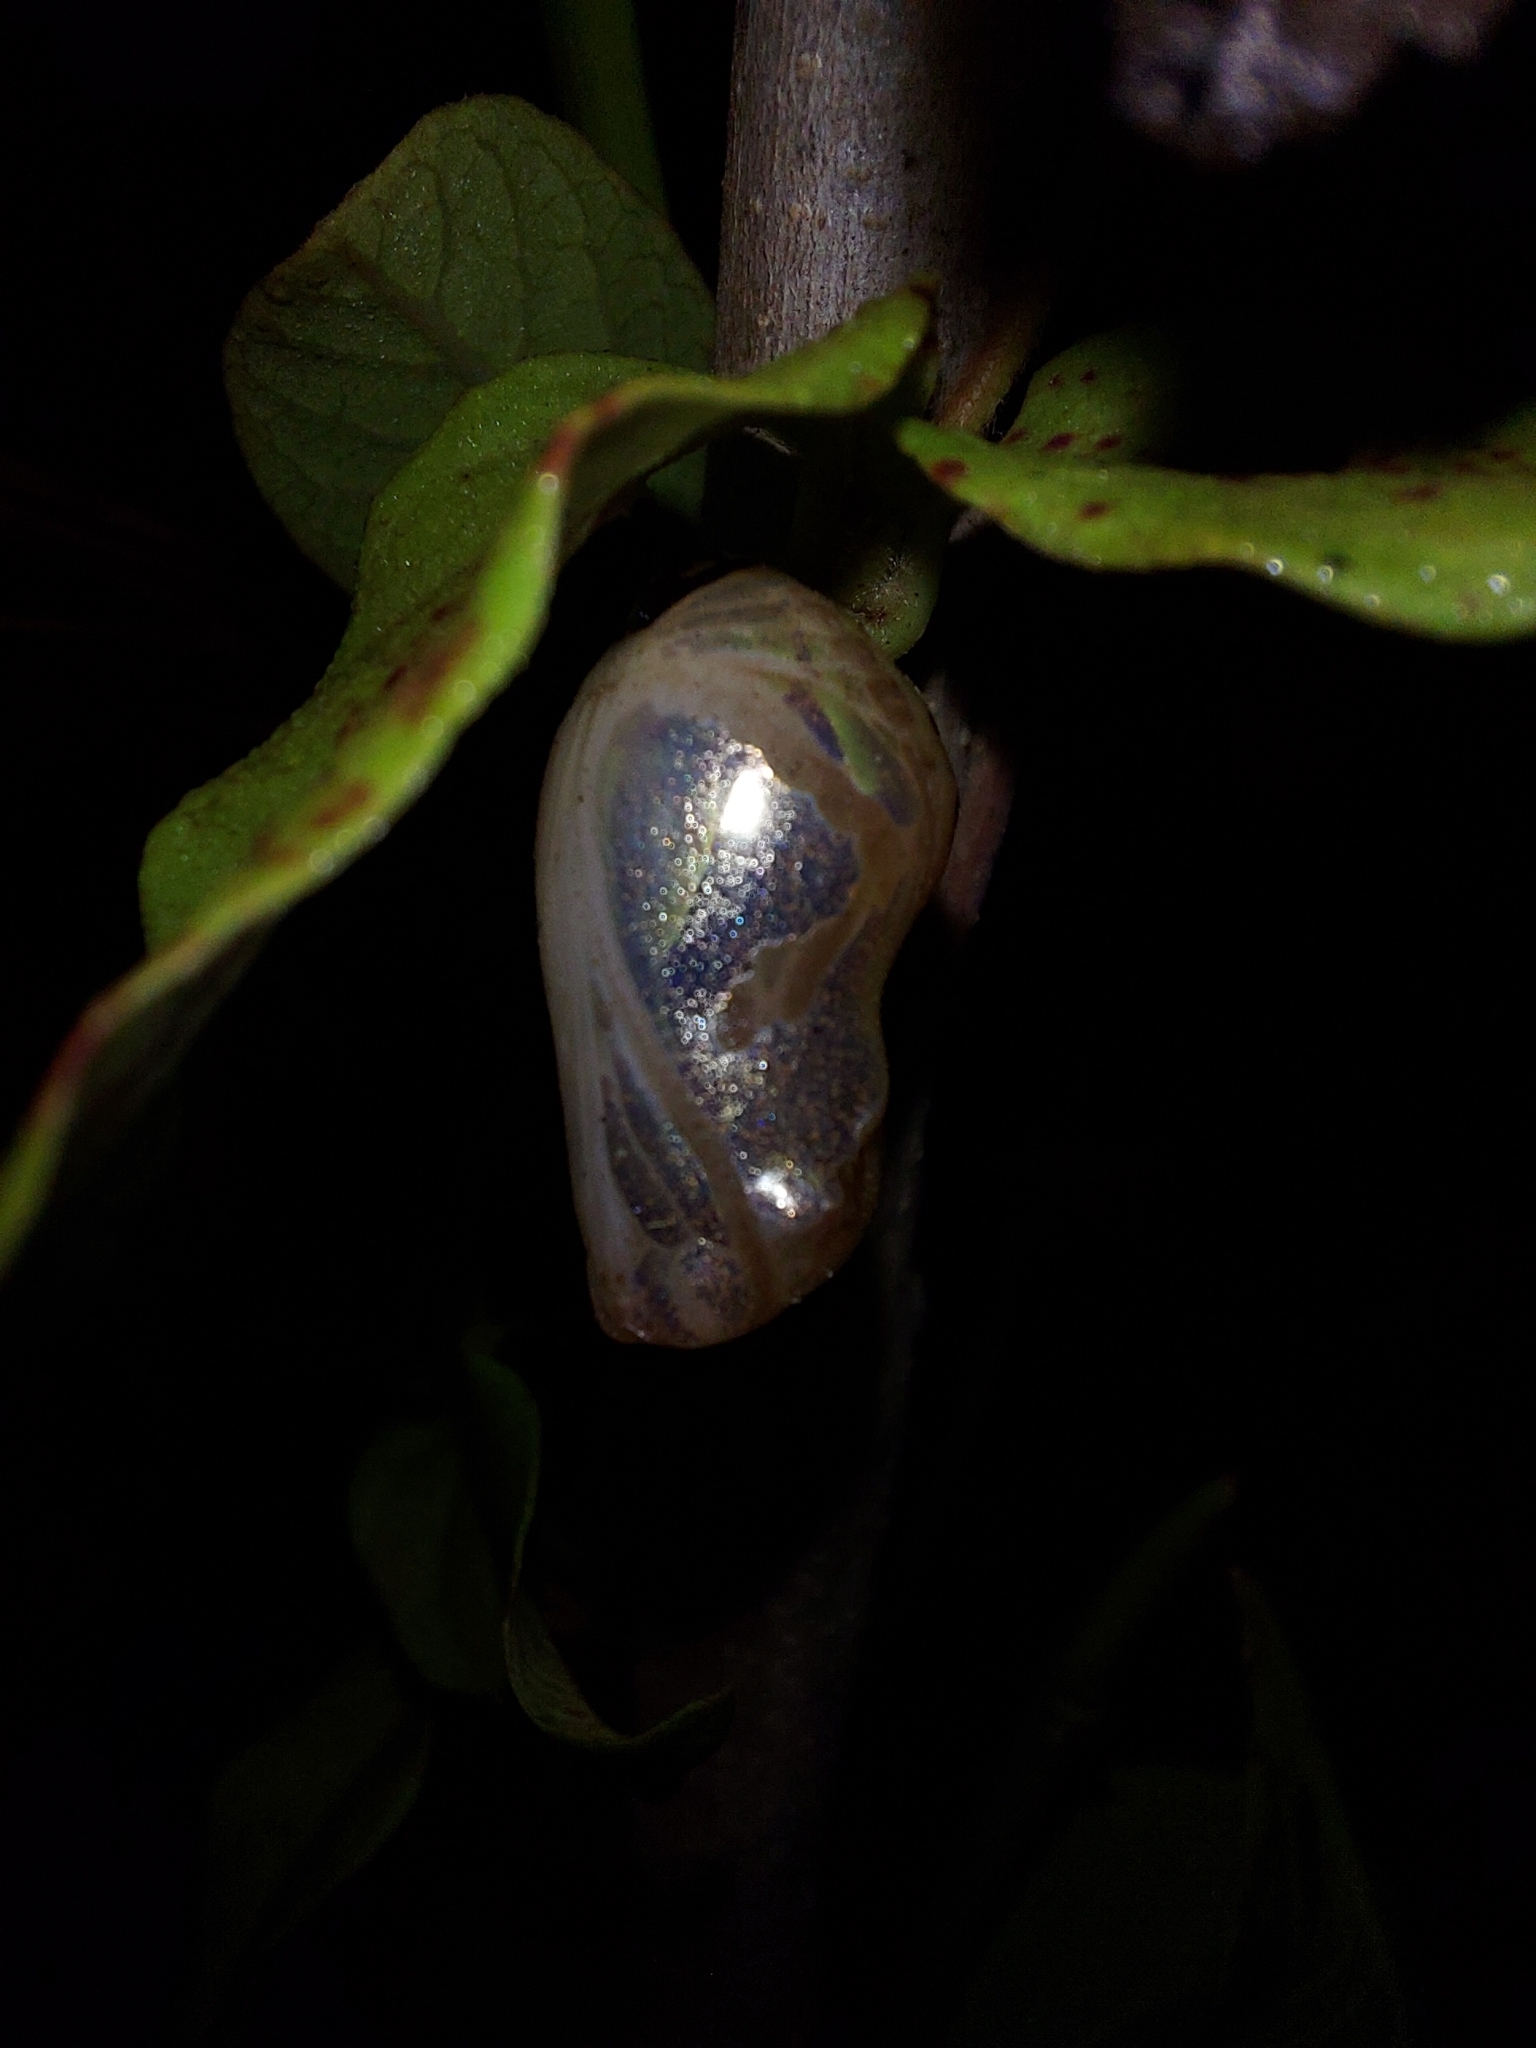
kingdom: Animalia
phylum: Arthropoda
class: Insecta
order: Lepidoptera
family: Nymphalidae
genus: Euploea
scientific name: Euploea core
